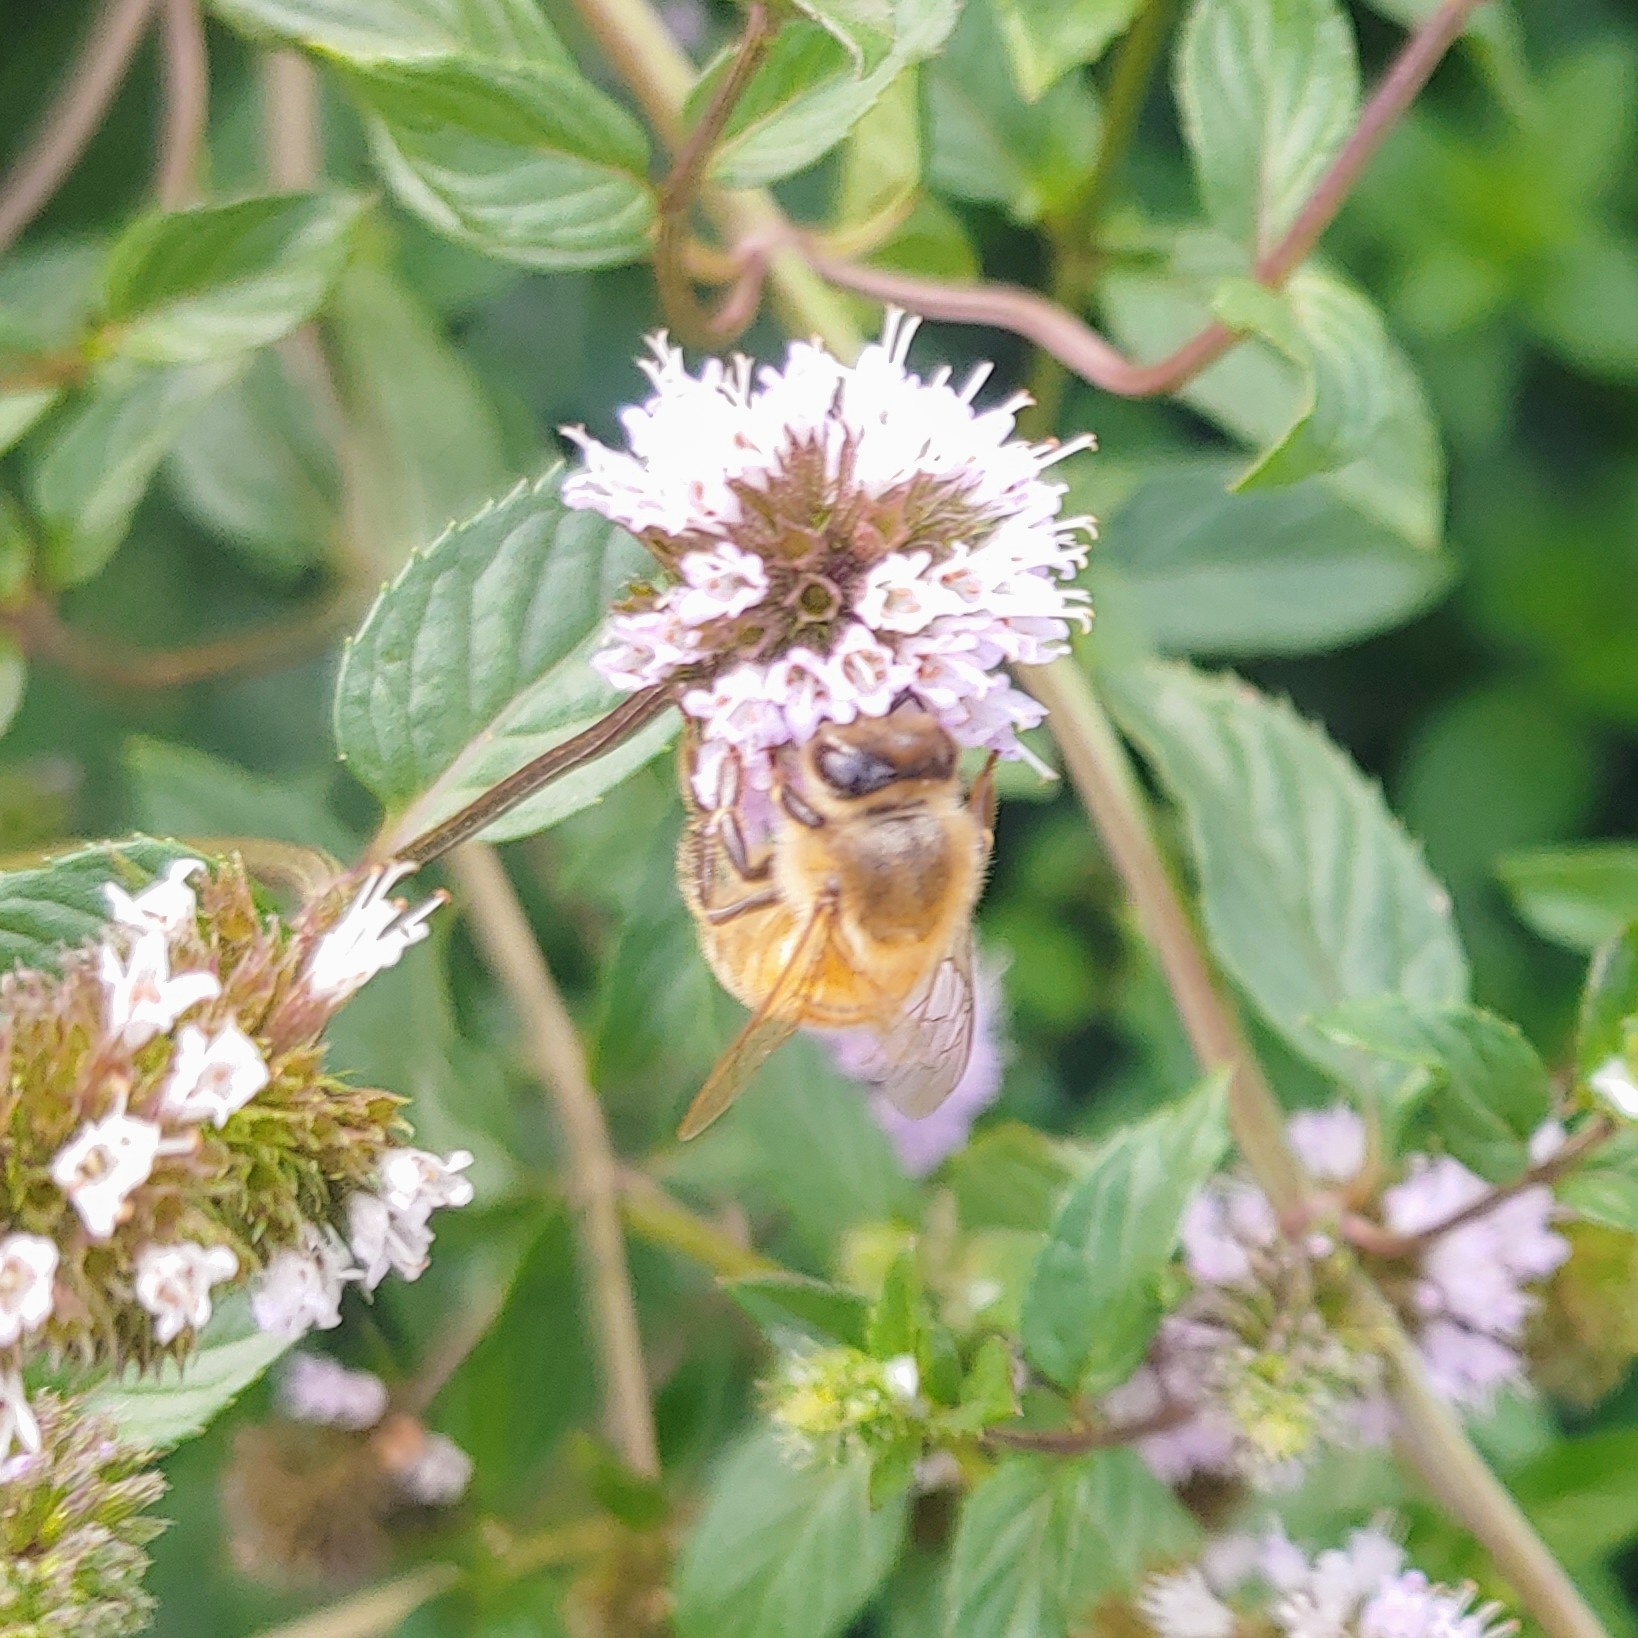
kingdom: Animalia
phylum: Arthropoda
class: Insecta
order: Hymenoptera
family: Apidae
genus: Apis
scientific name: Apis mellifera
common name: Honey bee
